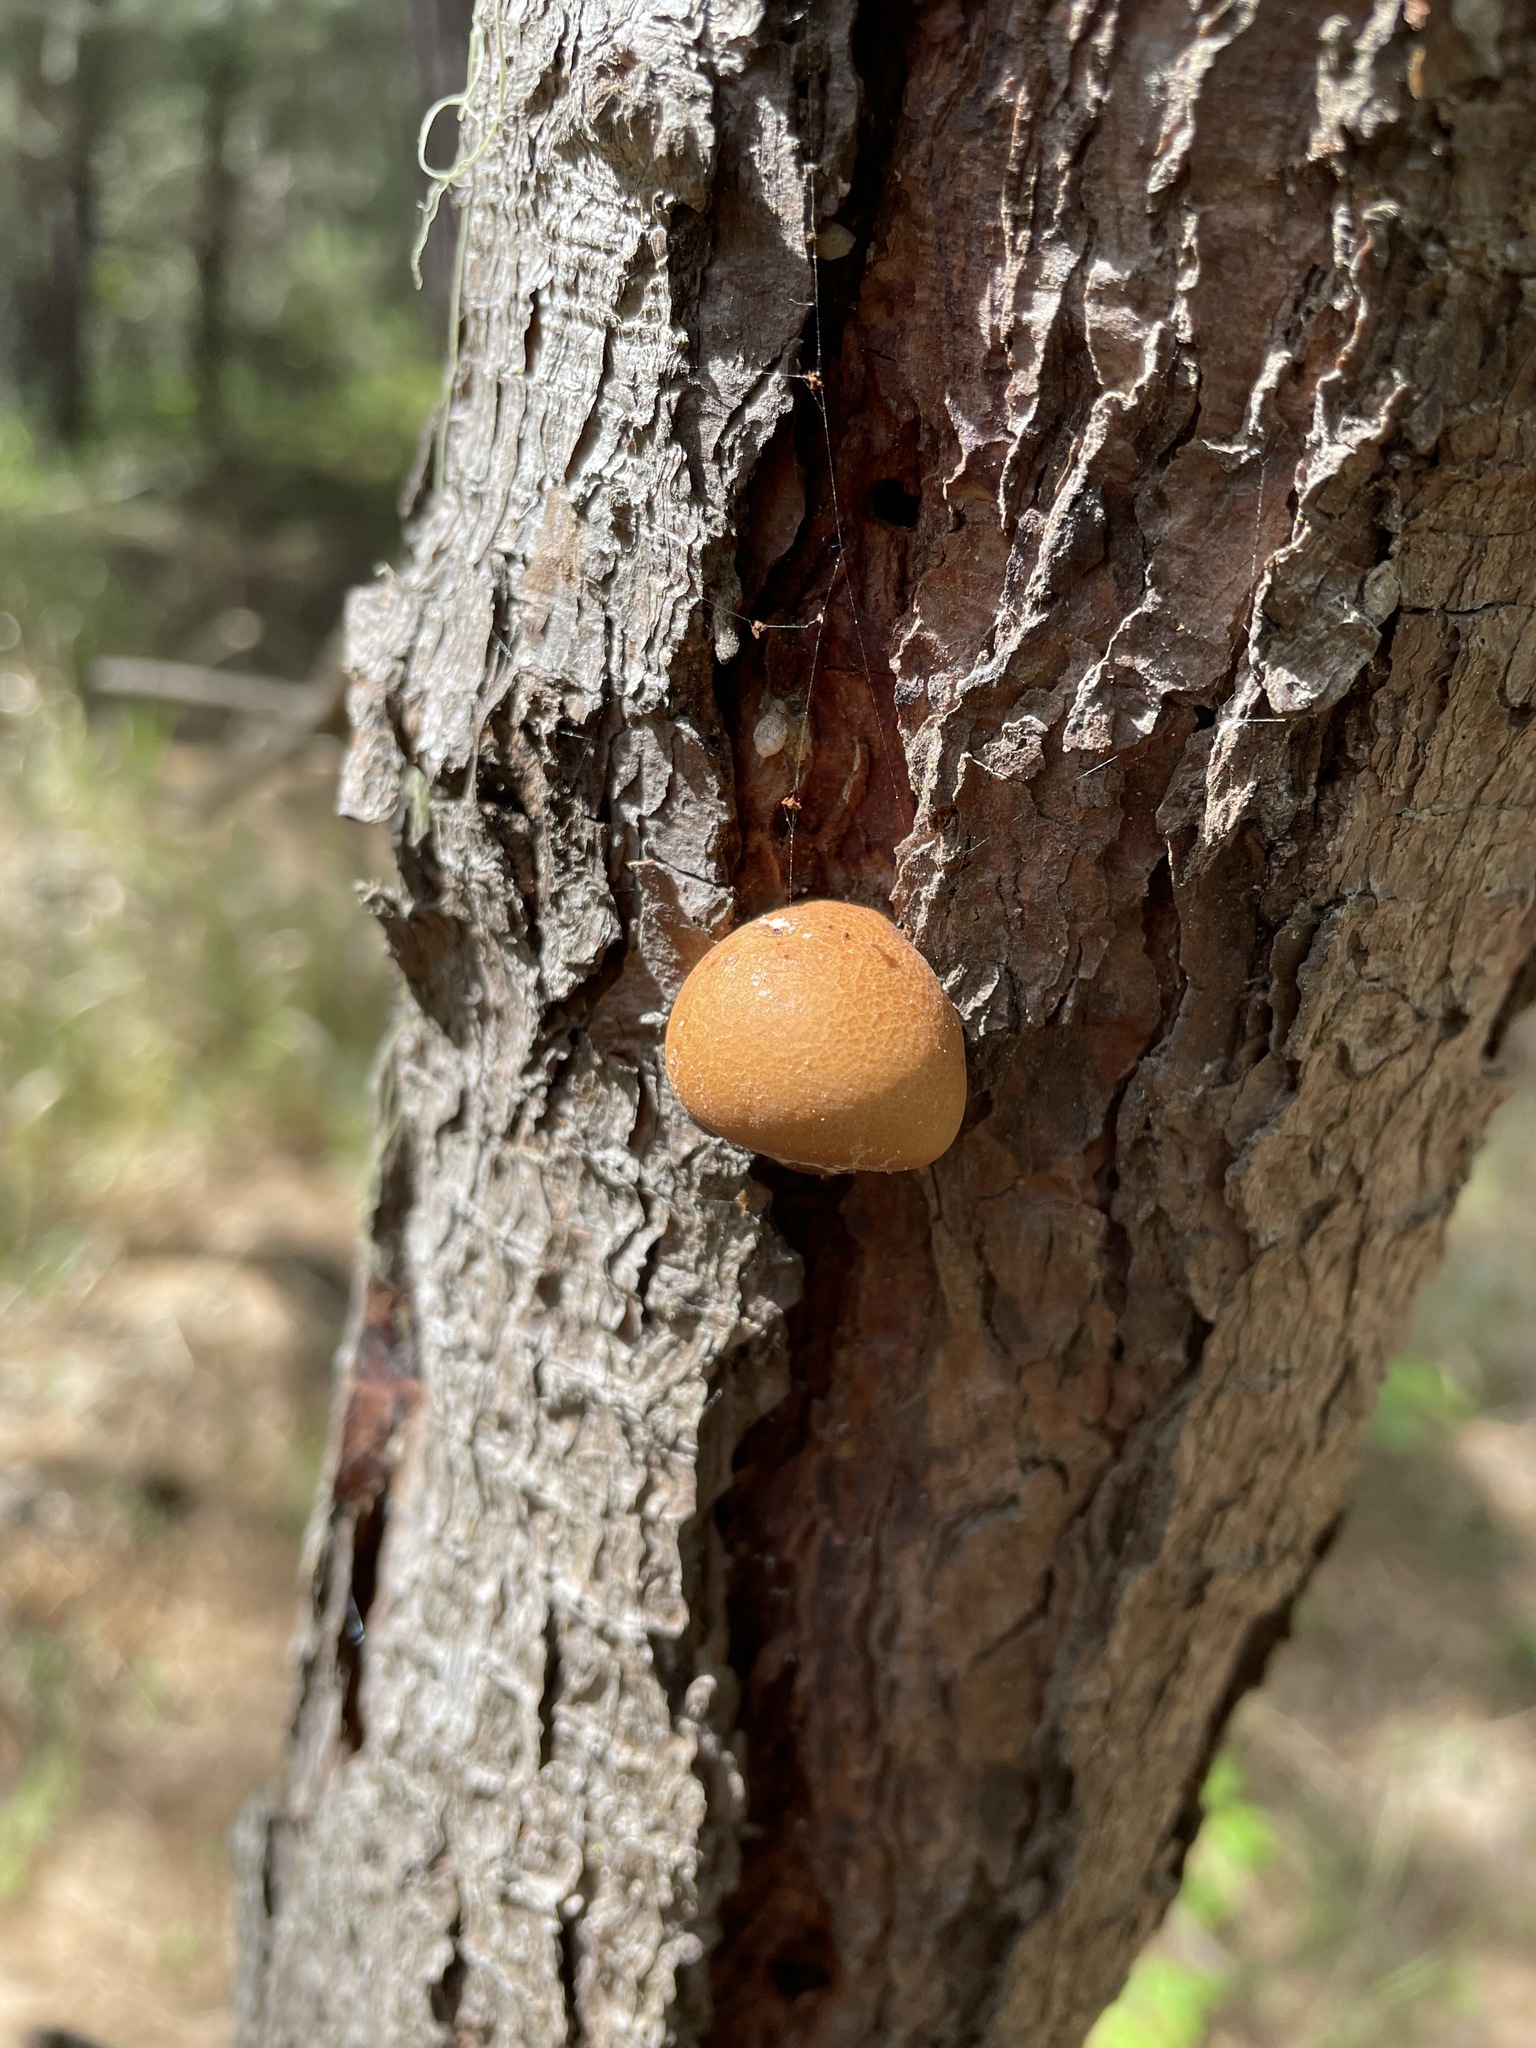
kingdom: Fungi
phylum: Basidiomycota
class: Agaricomycetes
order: Polyporales
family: Polyporaceae
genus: Cryptoporus
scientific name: Cryptoporus volvatus
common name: Veiled polypore
